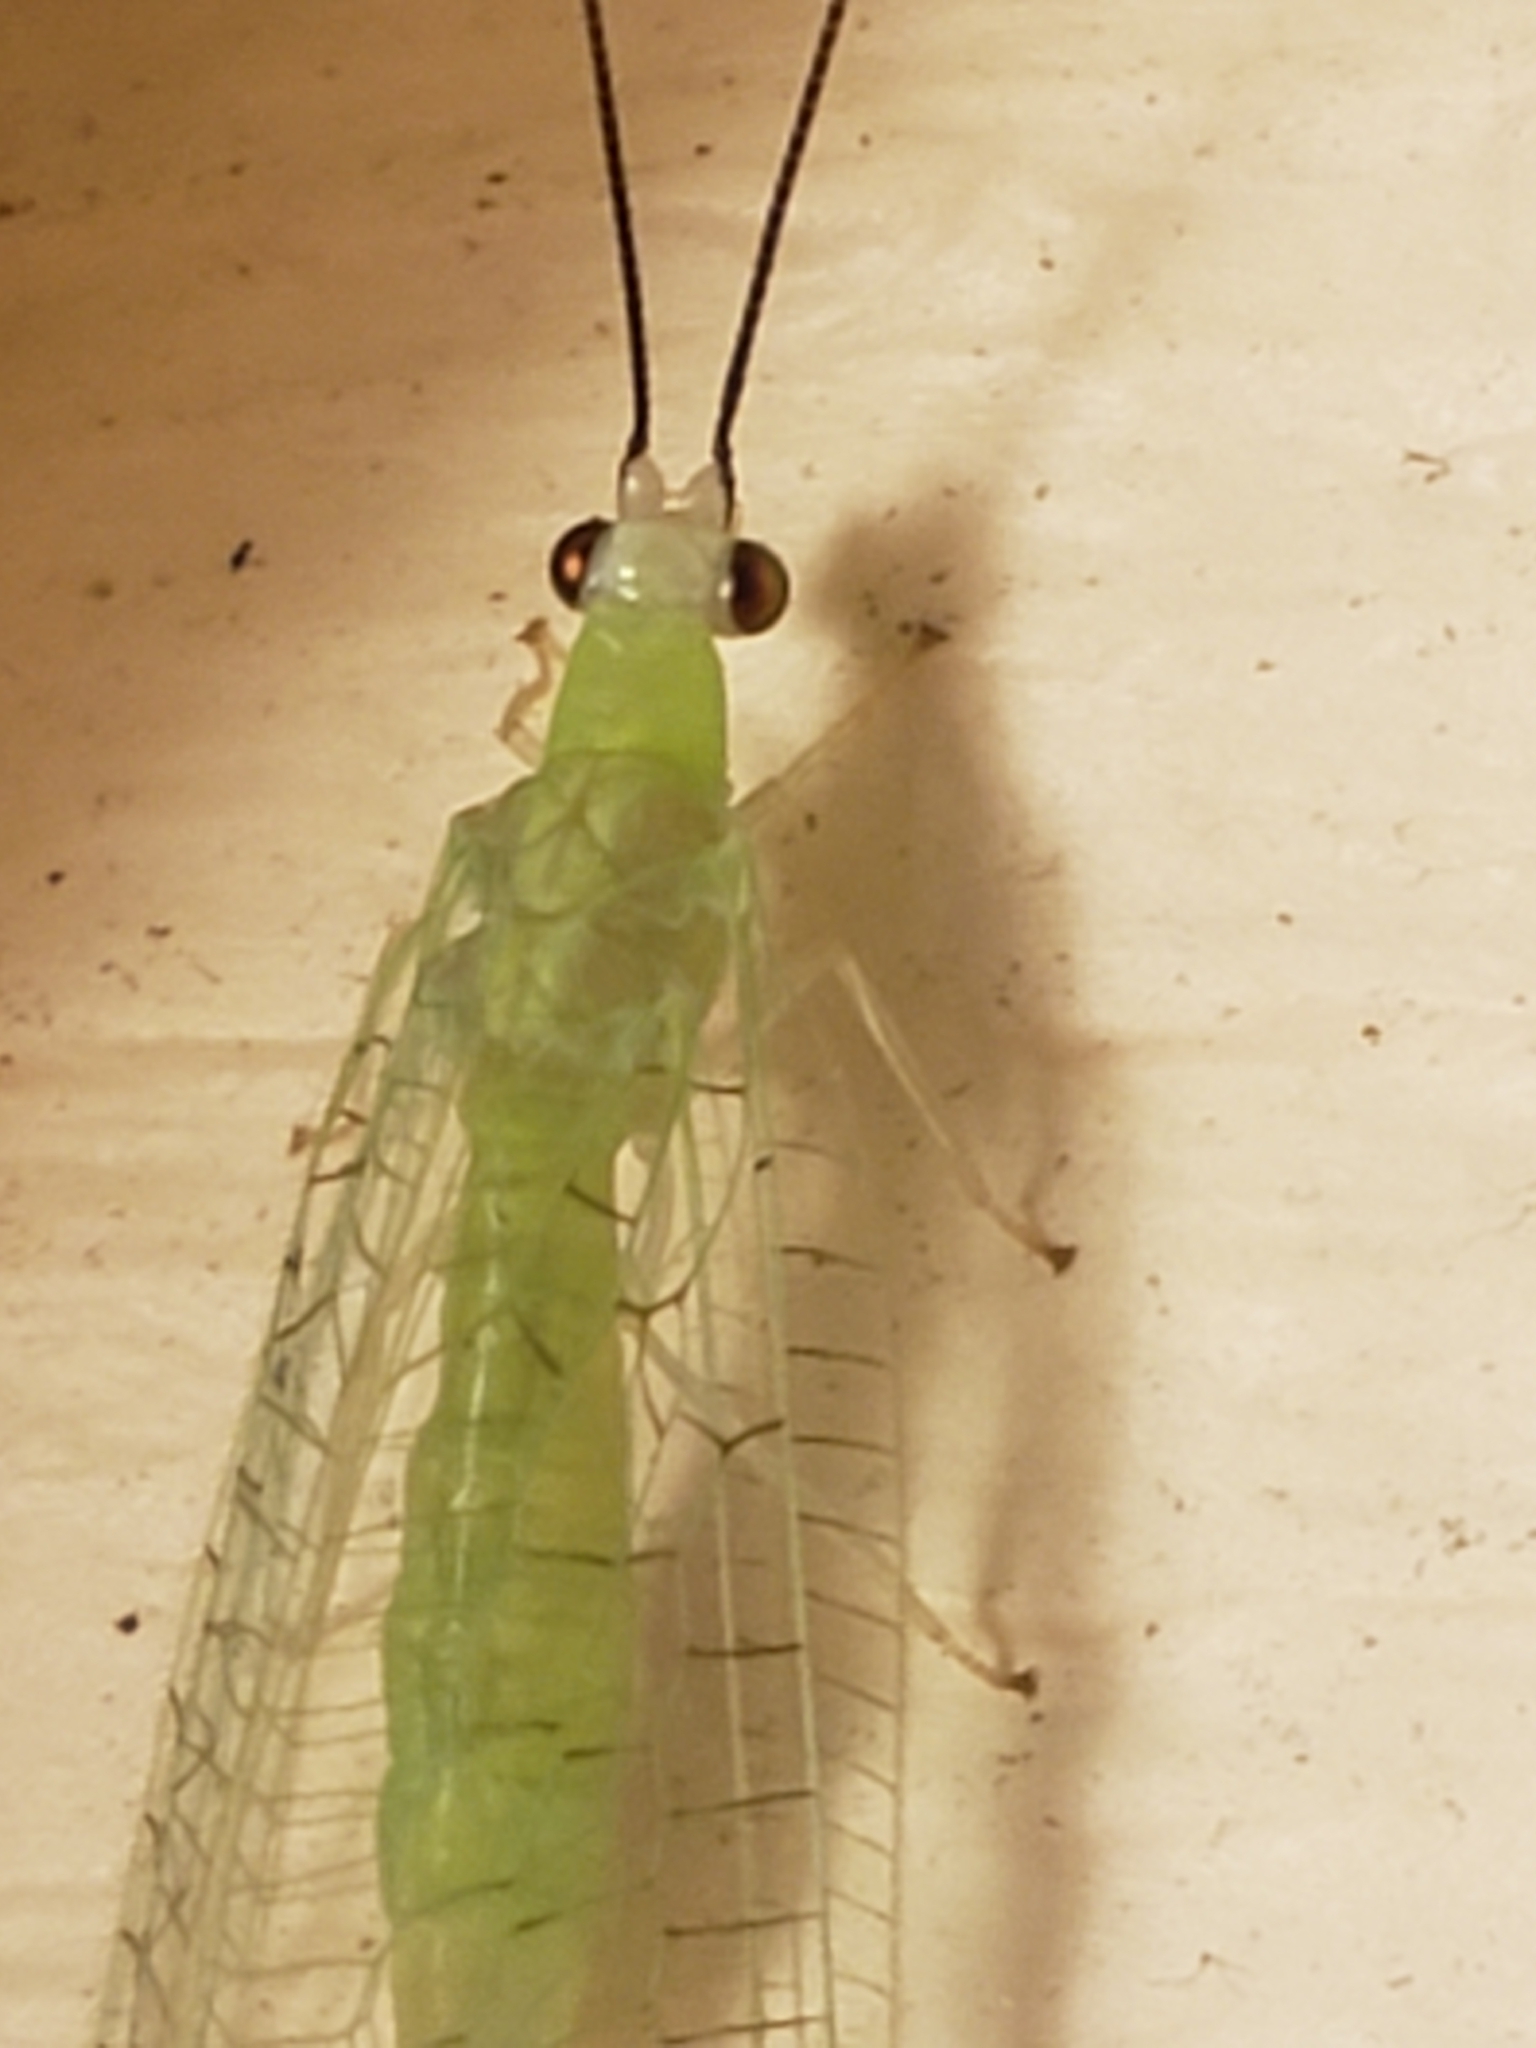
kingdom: Animalia
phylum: Arthropoda
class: Insecta
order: Neuroptera
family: Chrysopidae
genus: Ceraeochrysa
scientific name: Ceraeochrysa lineaticornis
